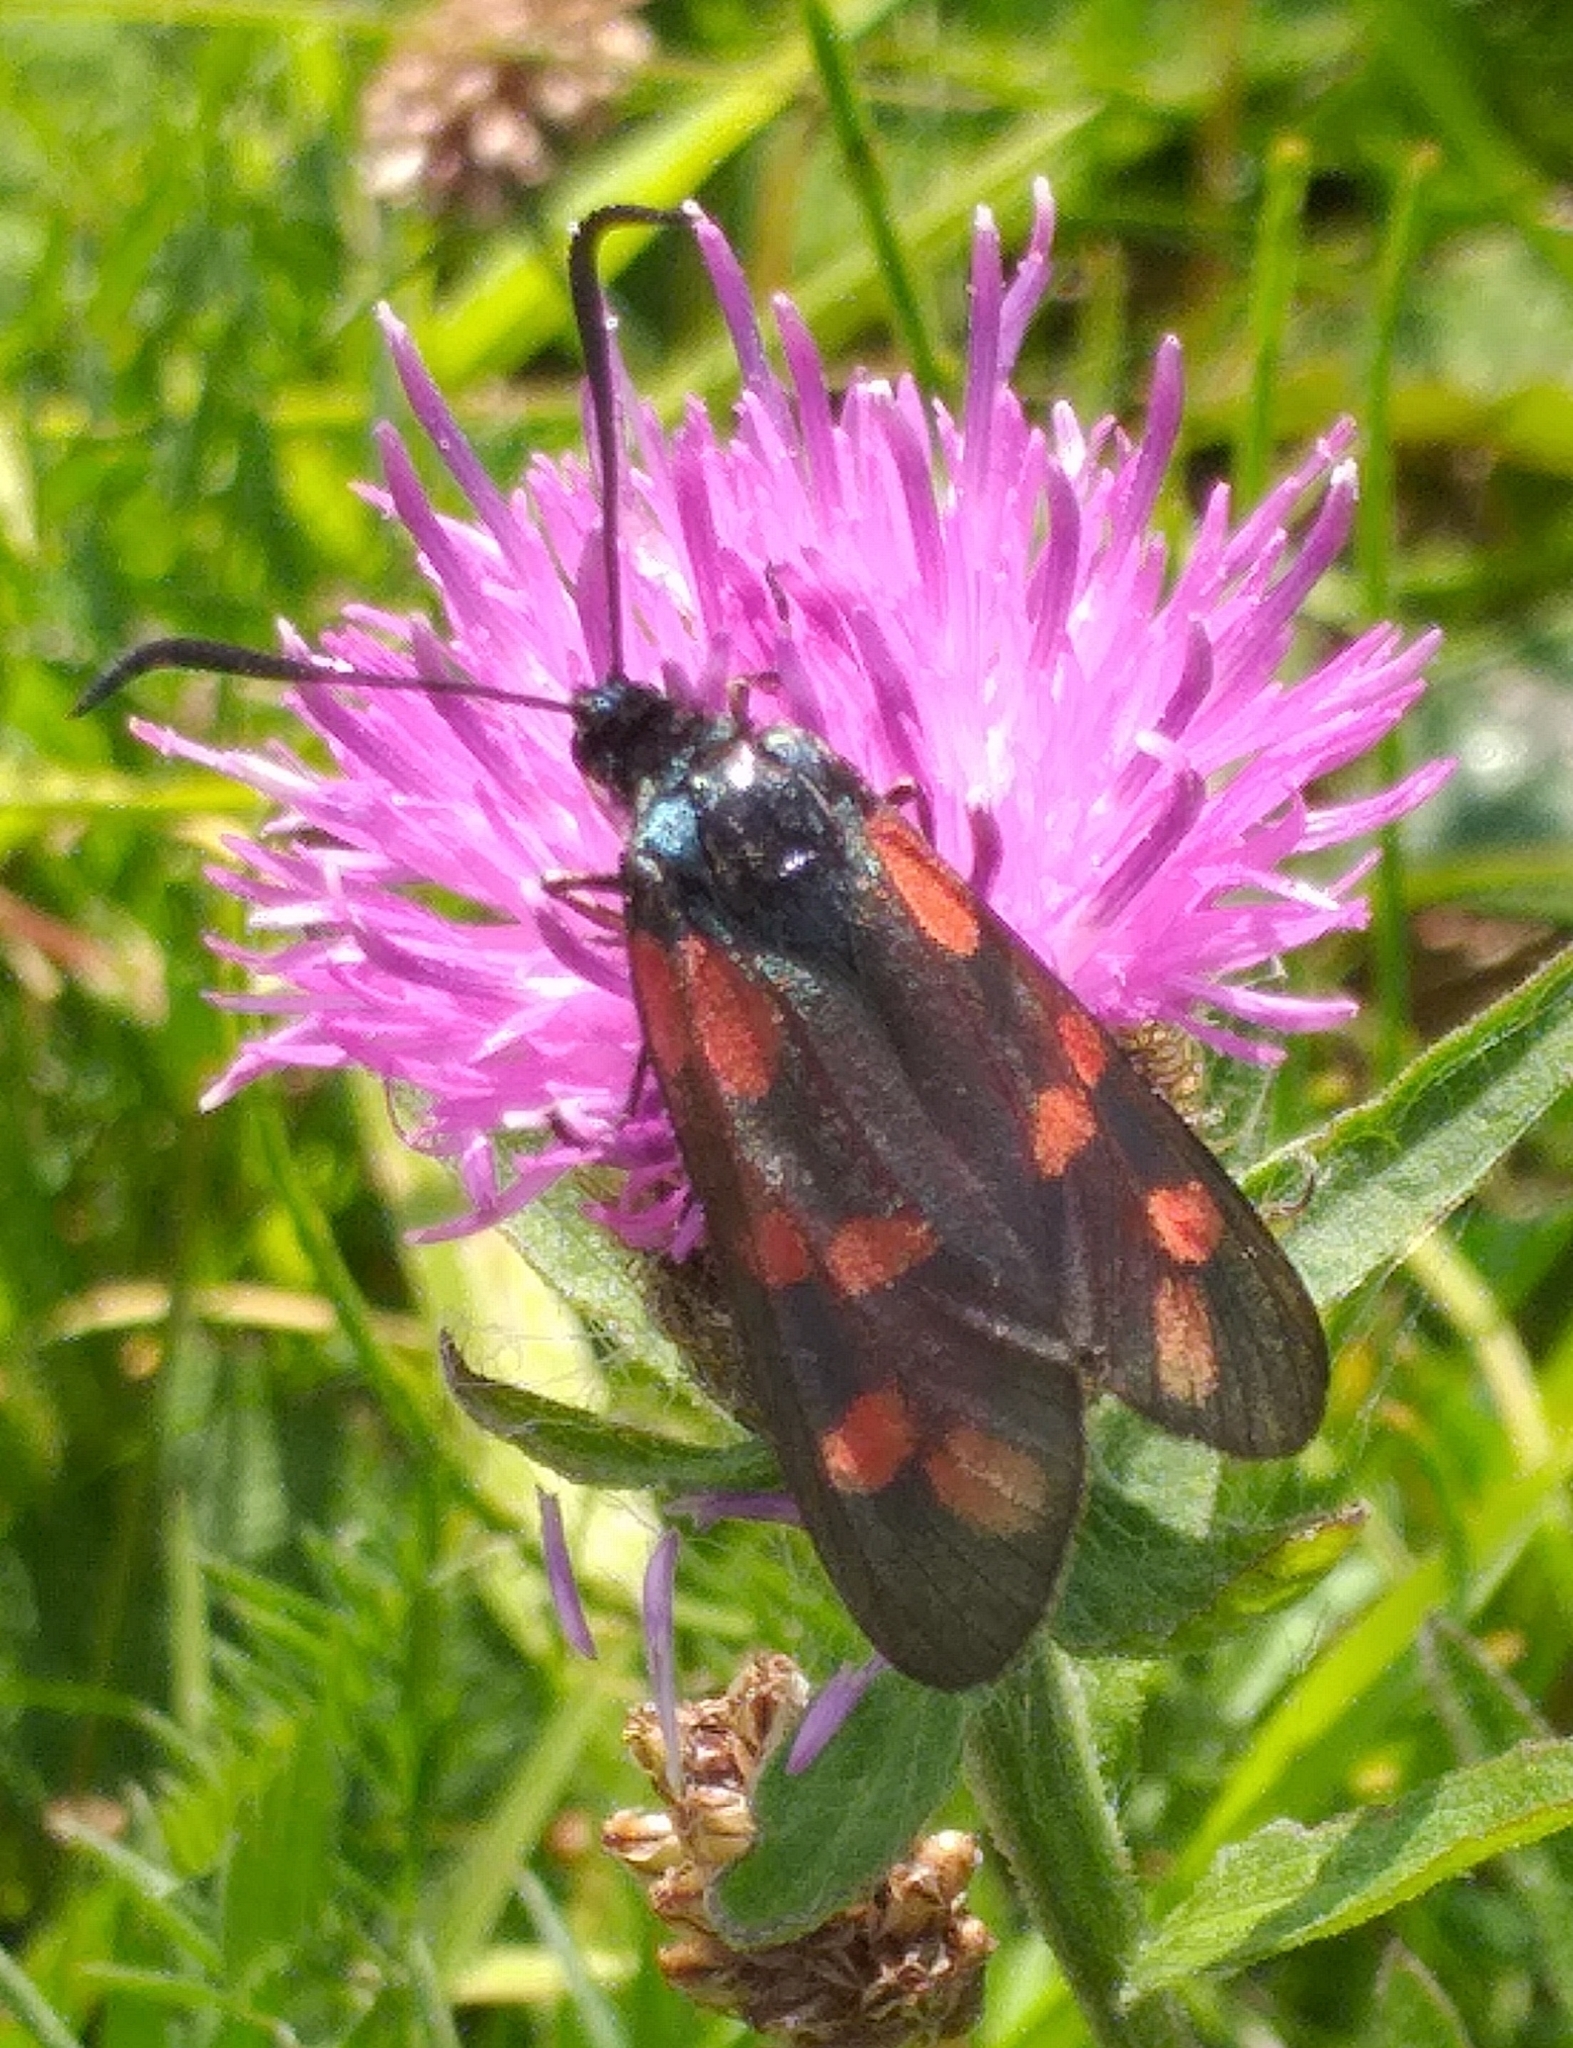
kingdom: Animalia
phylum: Arthropoda
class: Insecta
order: Lepidoptera
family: Zygaenidae
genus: Zygaena
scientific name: Zygaena filipendulae
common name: Six-spot burnet
